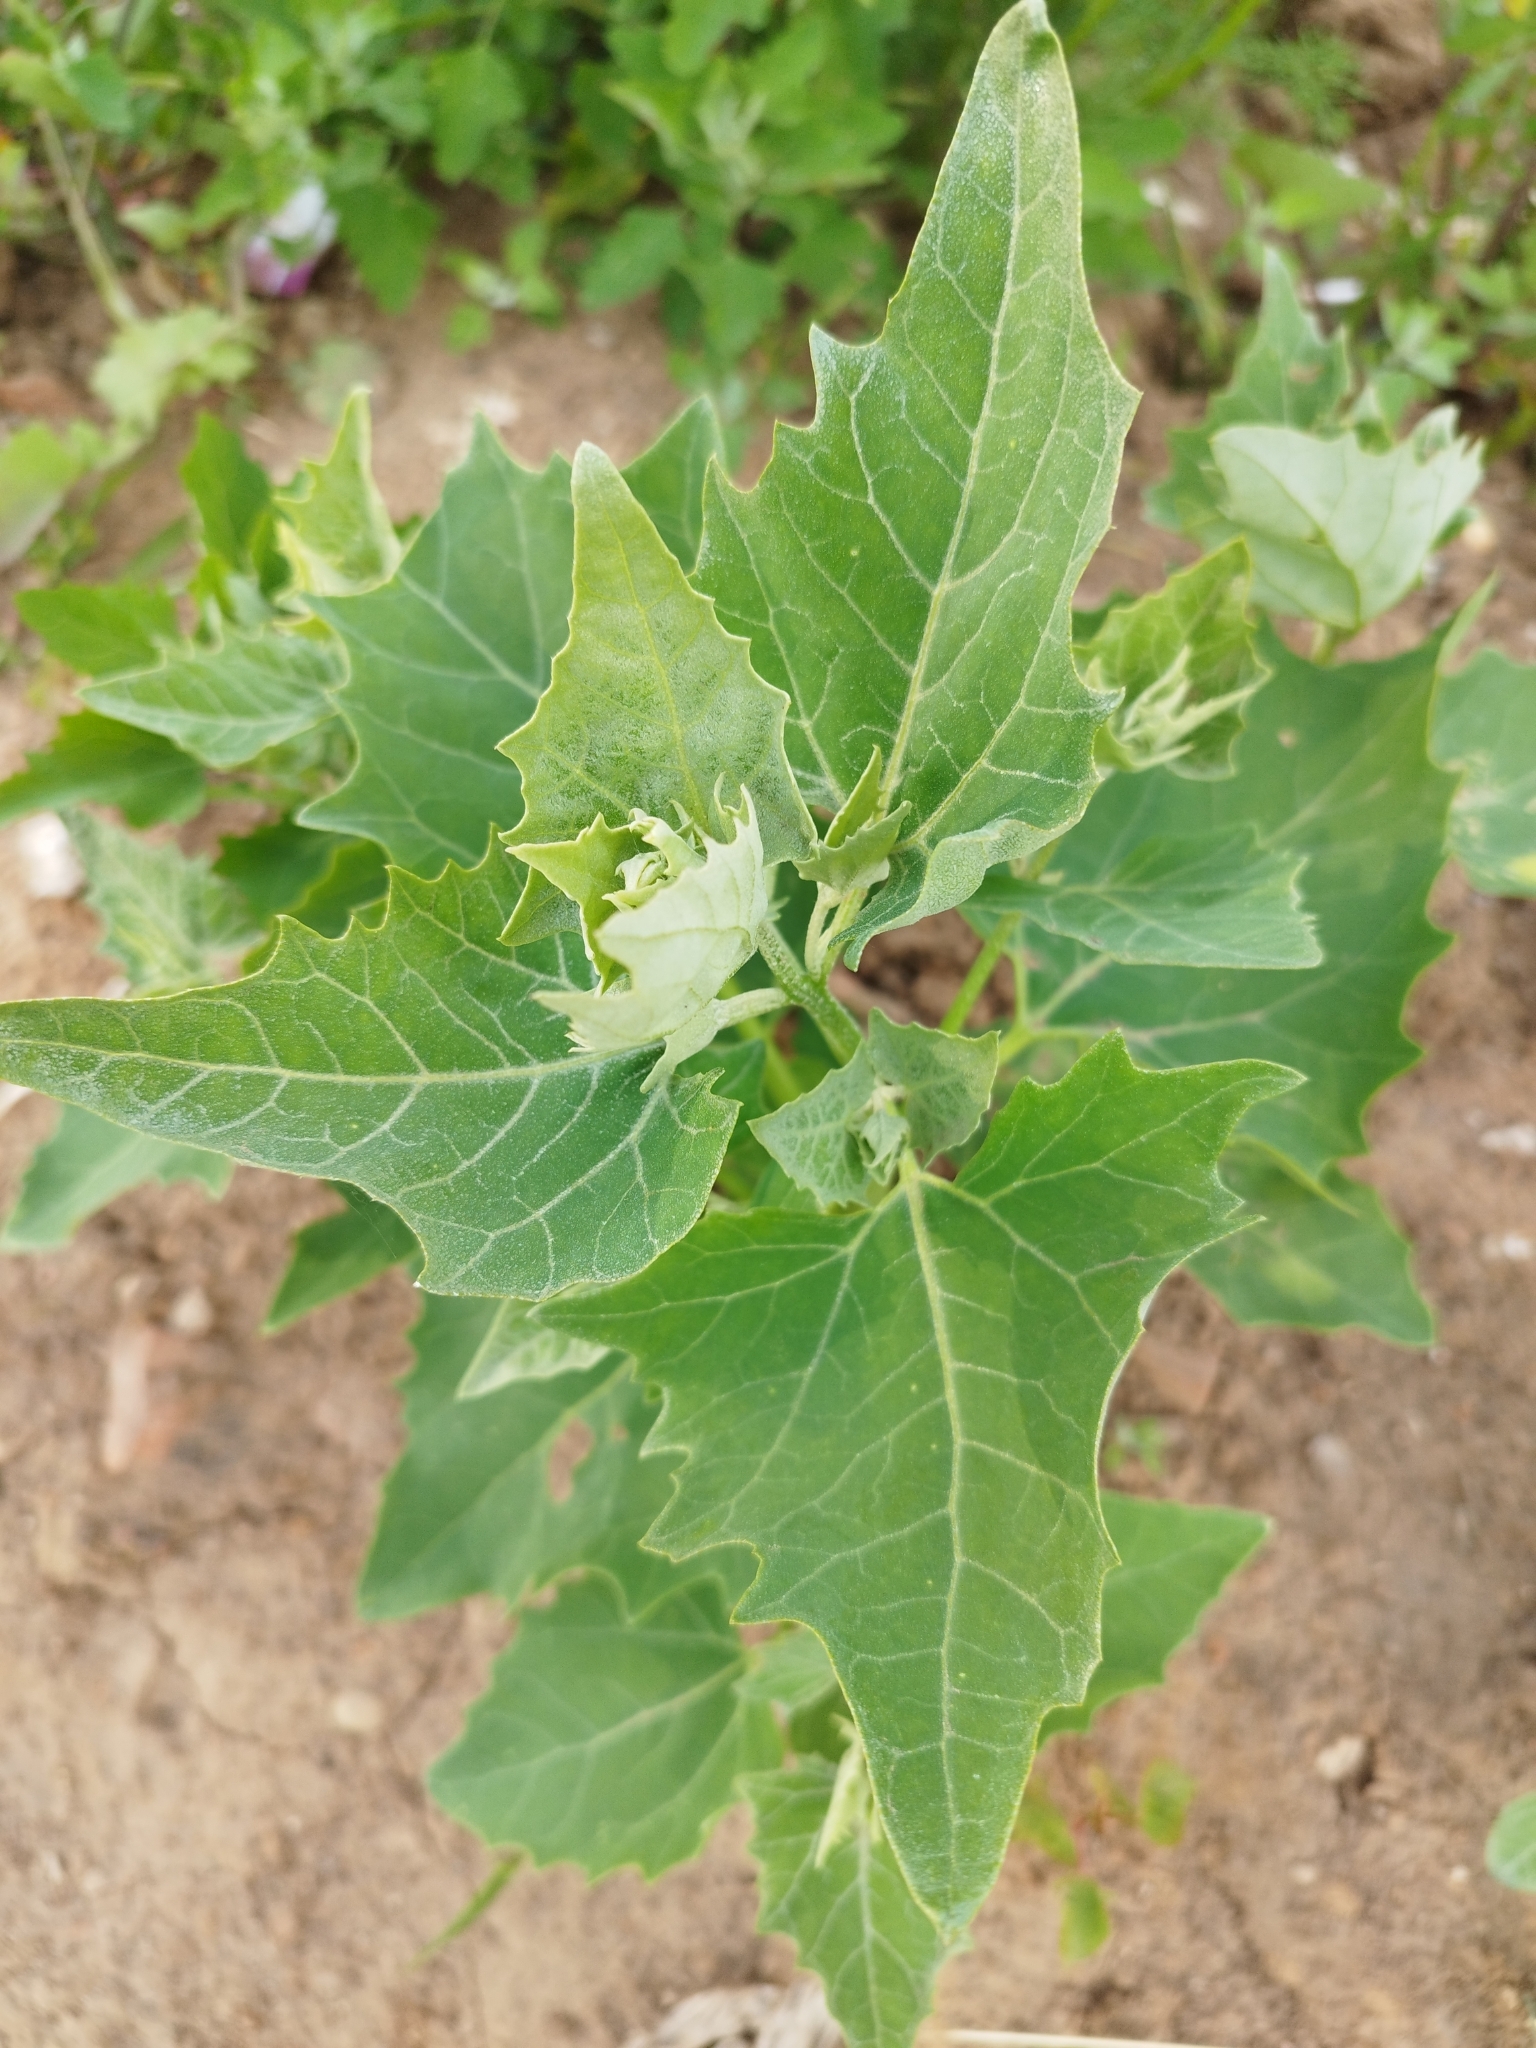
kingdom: Plantae
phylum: Tracheophyta
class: Magnoliopsida
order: Caryophyllales
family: Amaranthaceae
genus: Atriplex
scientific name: Atriplex sagittata
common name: Purple orache
